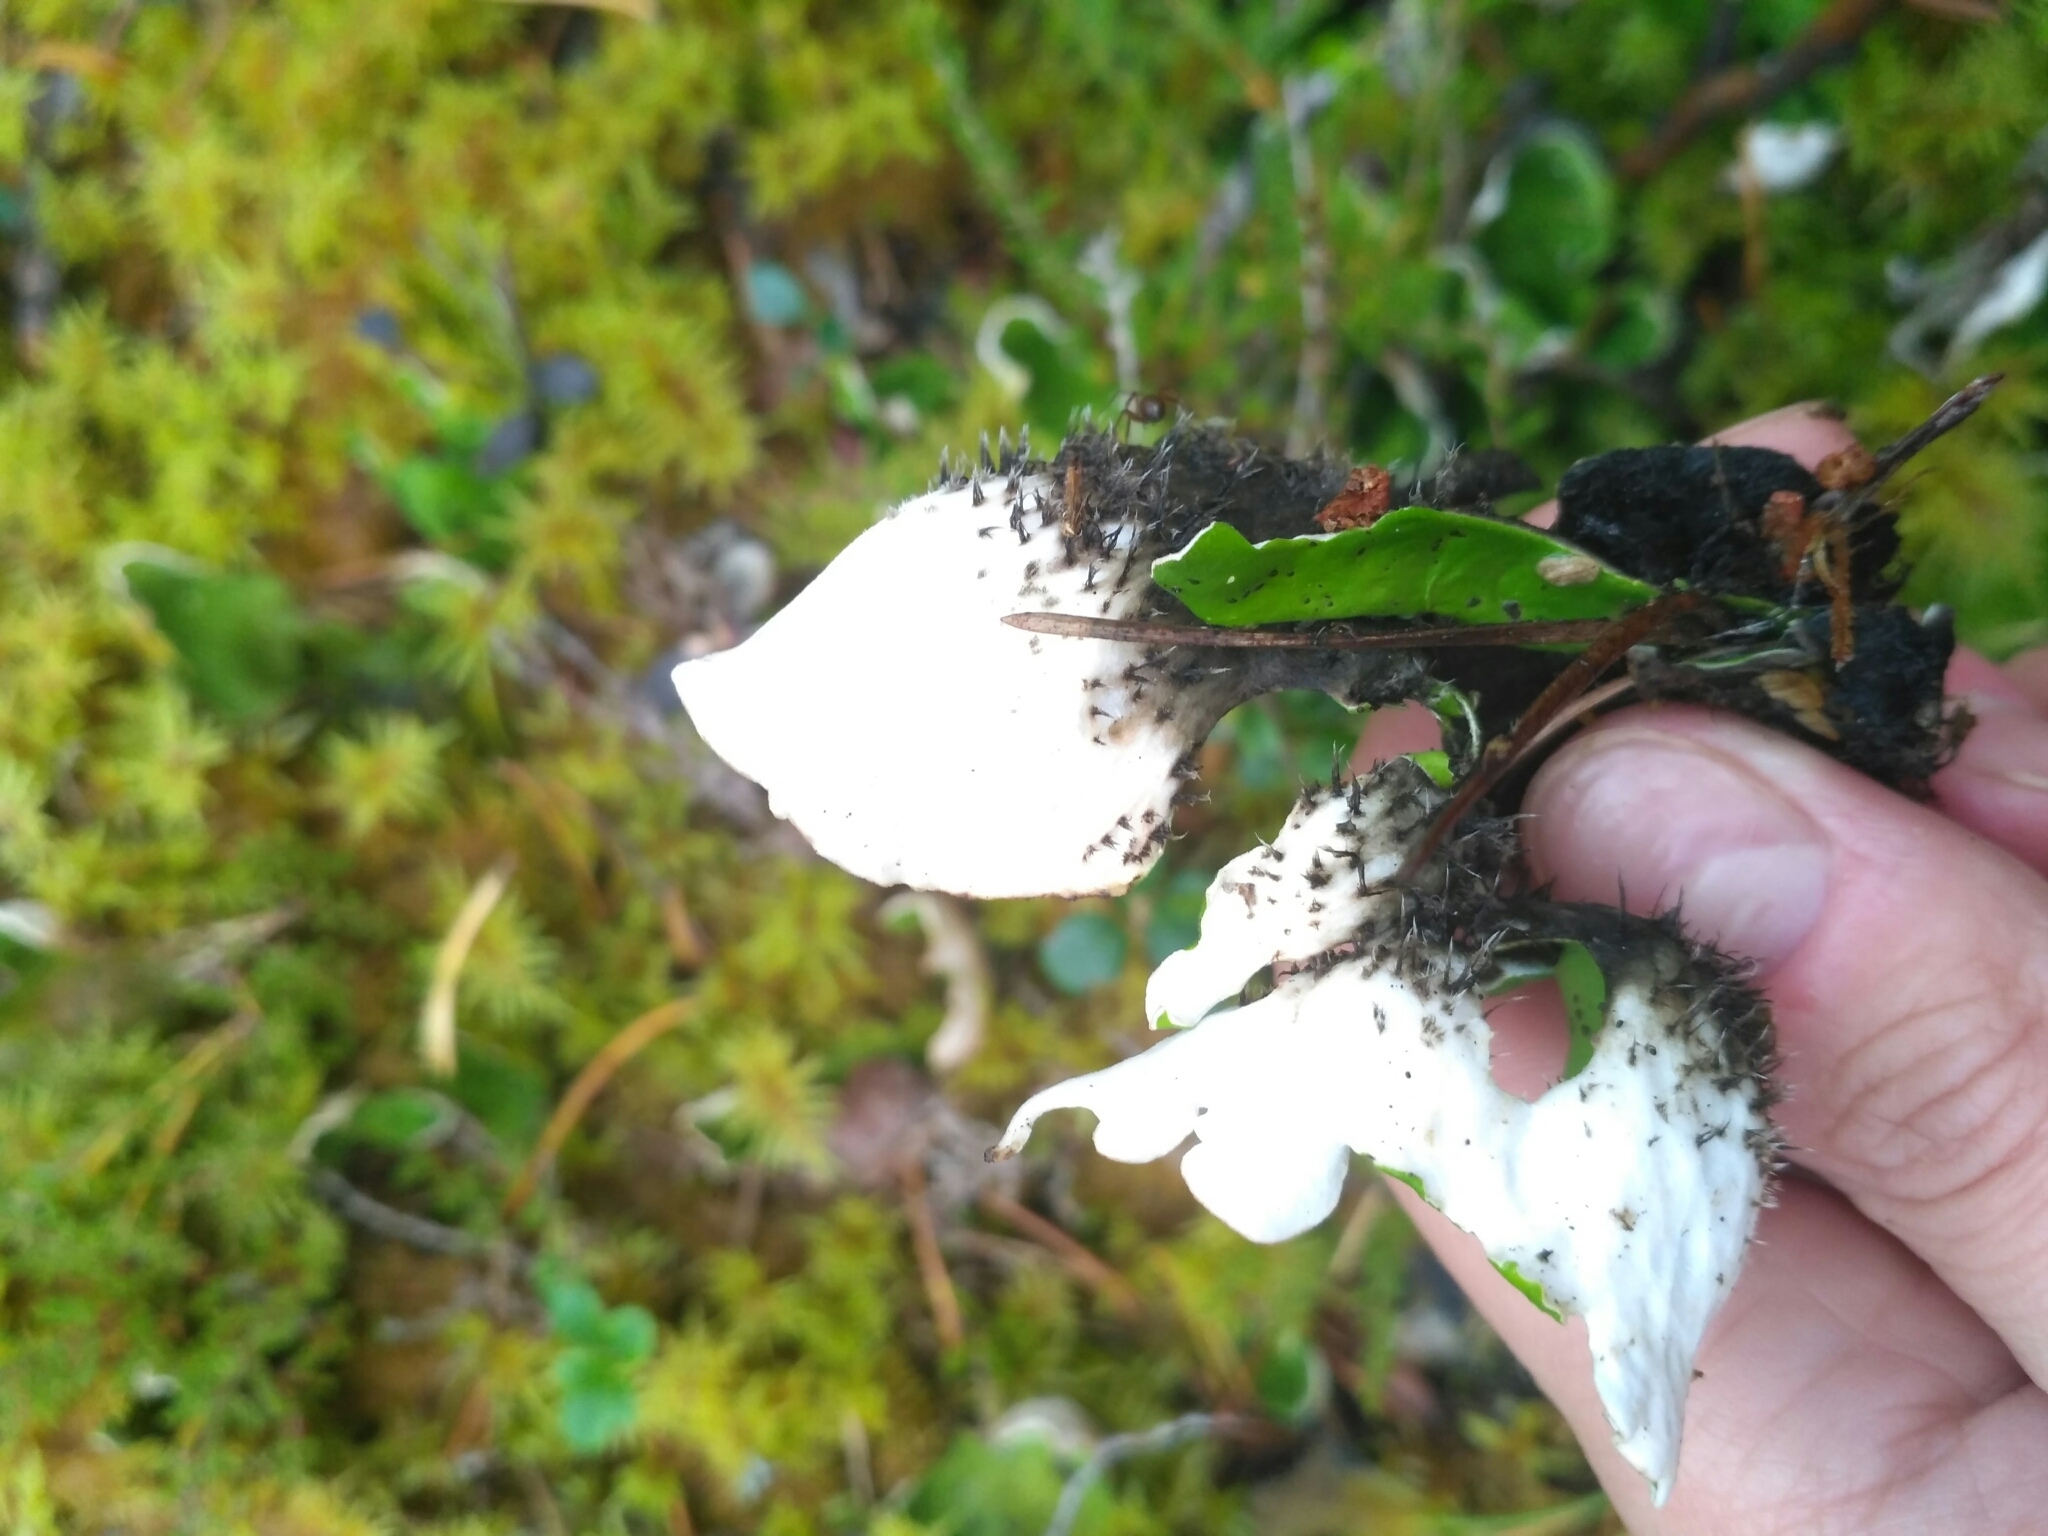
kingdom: Fungi
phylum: Ascomycota
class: Lecanoromycetes
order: Peltigerales
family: Peltigeraceae
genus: Peltigera
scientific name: Peltigera aphthosa
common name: Common freckle pelt lichen
